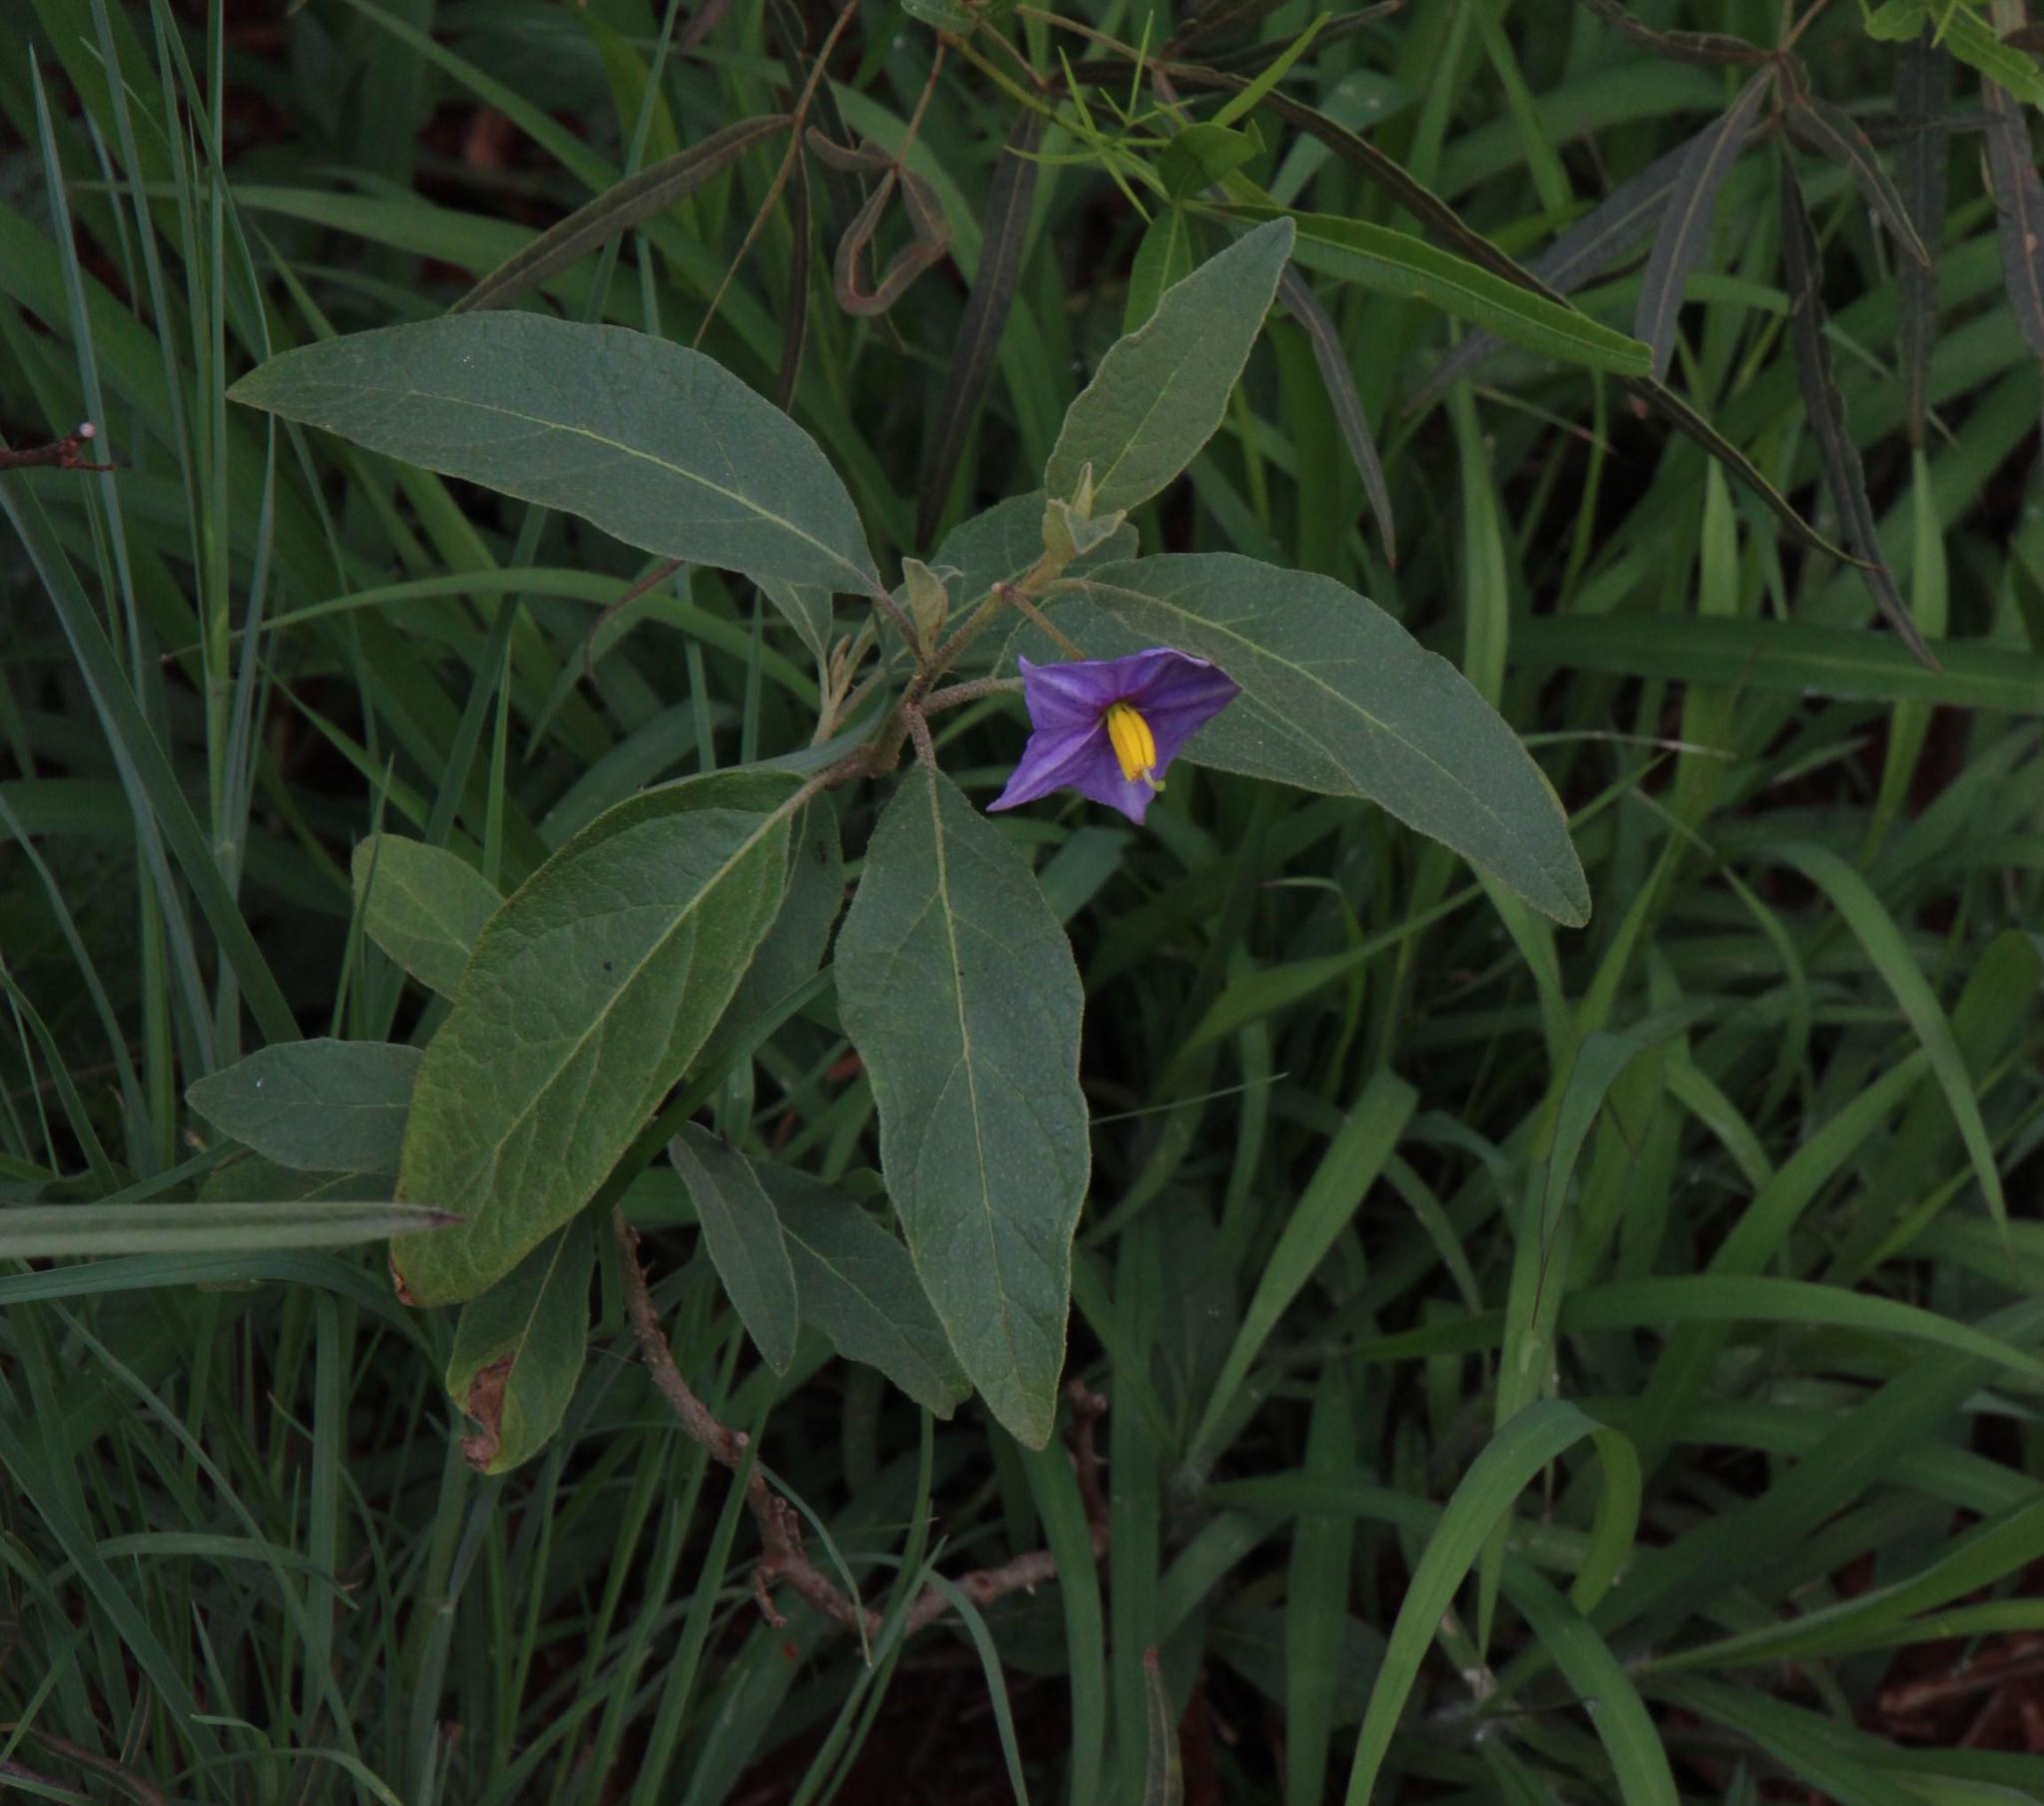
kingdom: Plantae
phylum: Tracheophyta
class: Magnoliopsida
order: Solanales
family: Solanaceae
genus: Solanum
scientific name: Solanum campylacanthum
